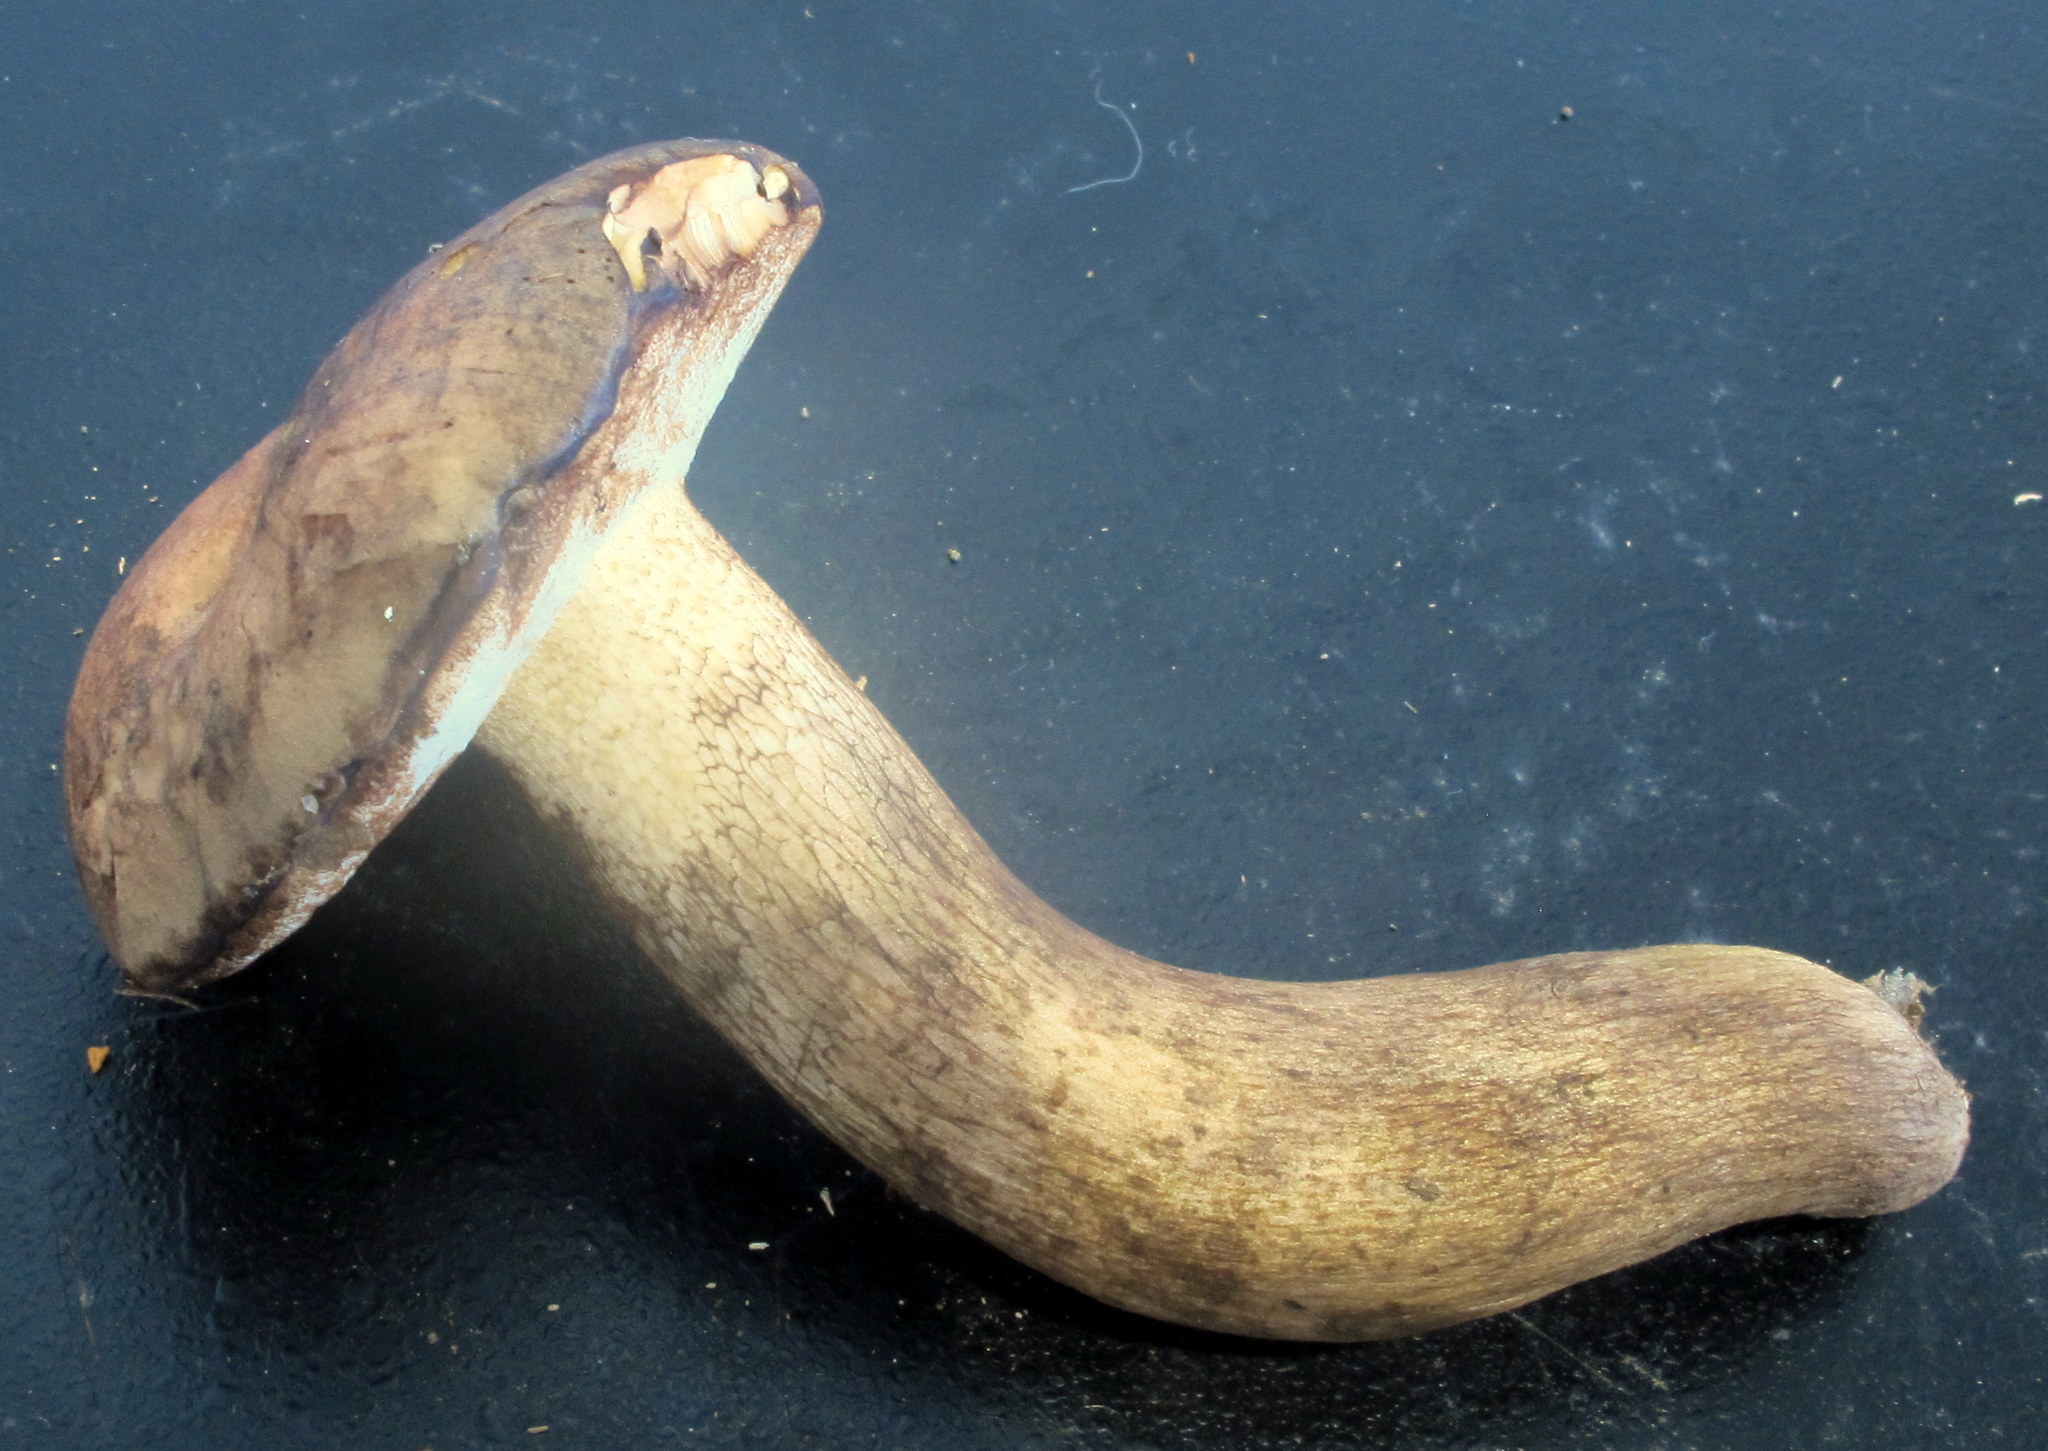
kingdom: Fungi
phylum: Basidiomycota
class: Agaricomycetes
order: Boletales
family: Boletaceae
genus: Tylopilus
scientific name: Tylopilus variobrunneus
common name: Brown-net bolete
